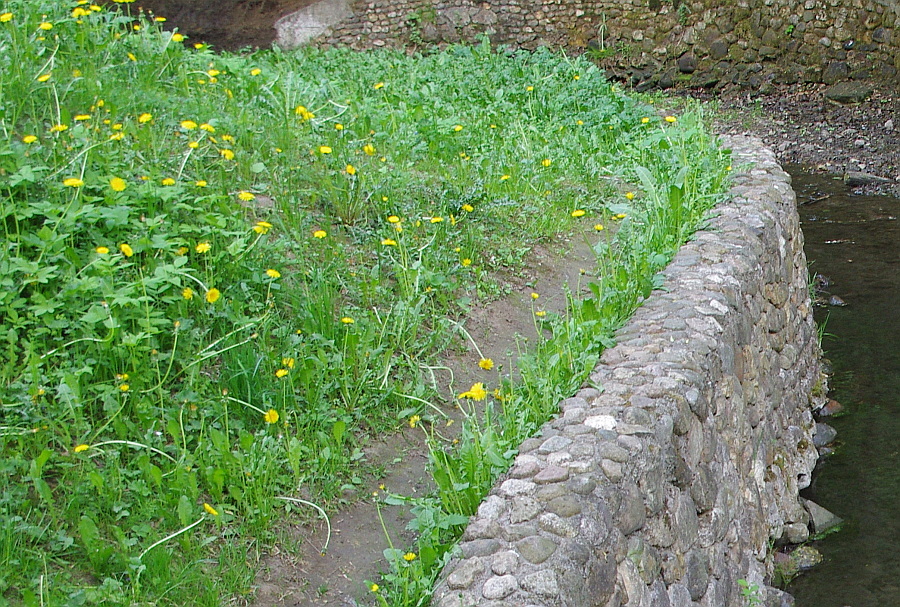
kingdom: Plantae
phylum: Tracheophyta
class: Magnoliopsida
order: Asterales
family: Asteraceae
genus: Taraxacum
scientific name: Taraxacum officinale
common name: Common dandelion
